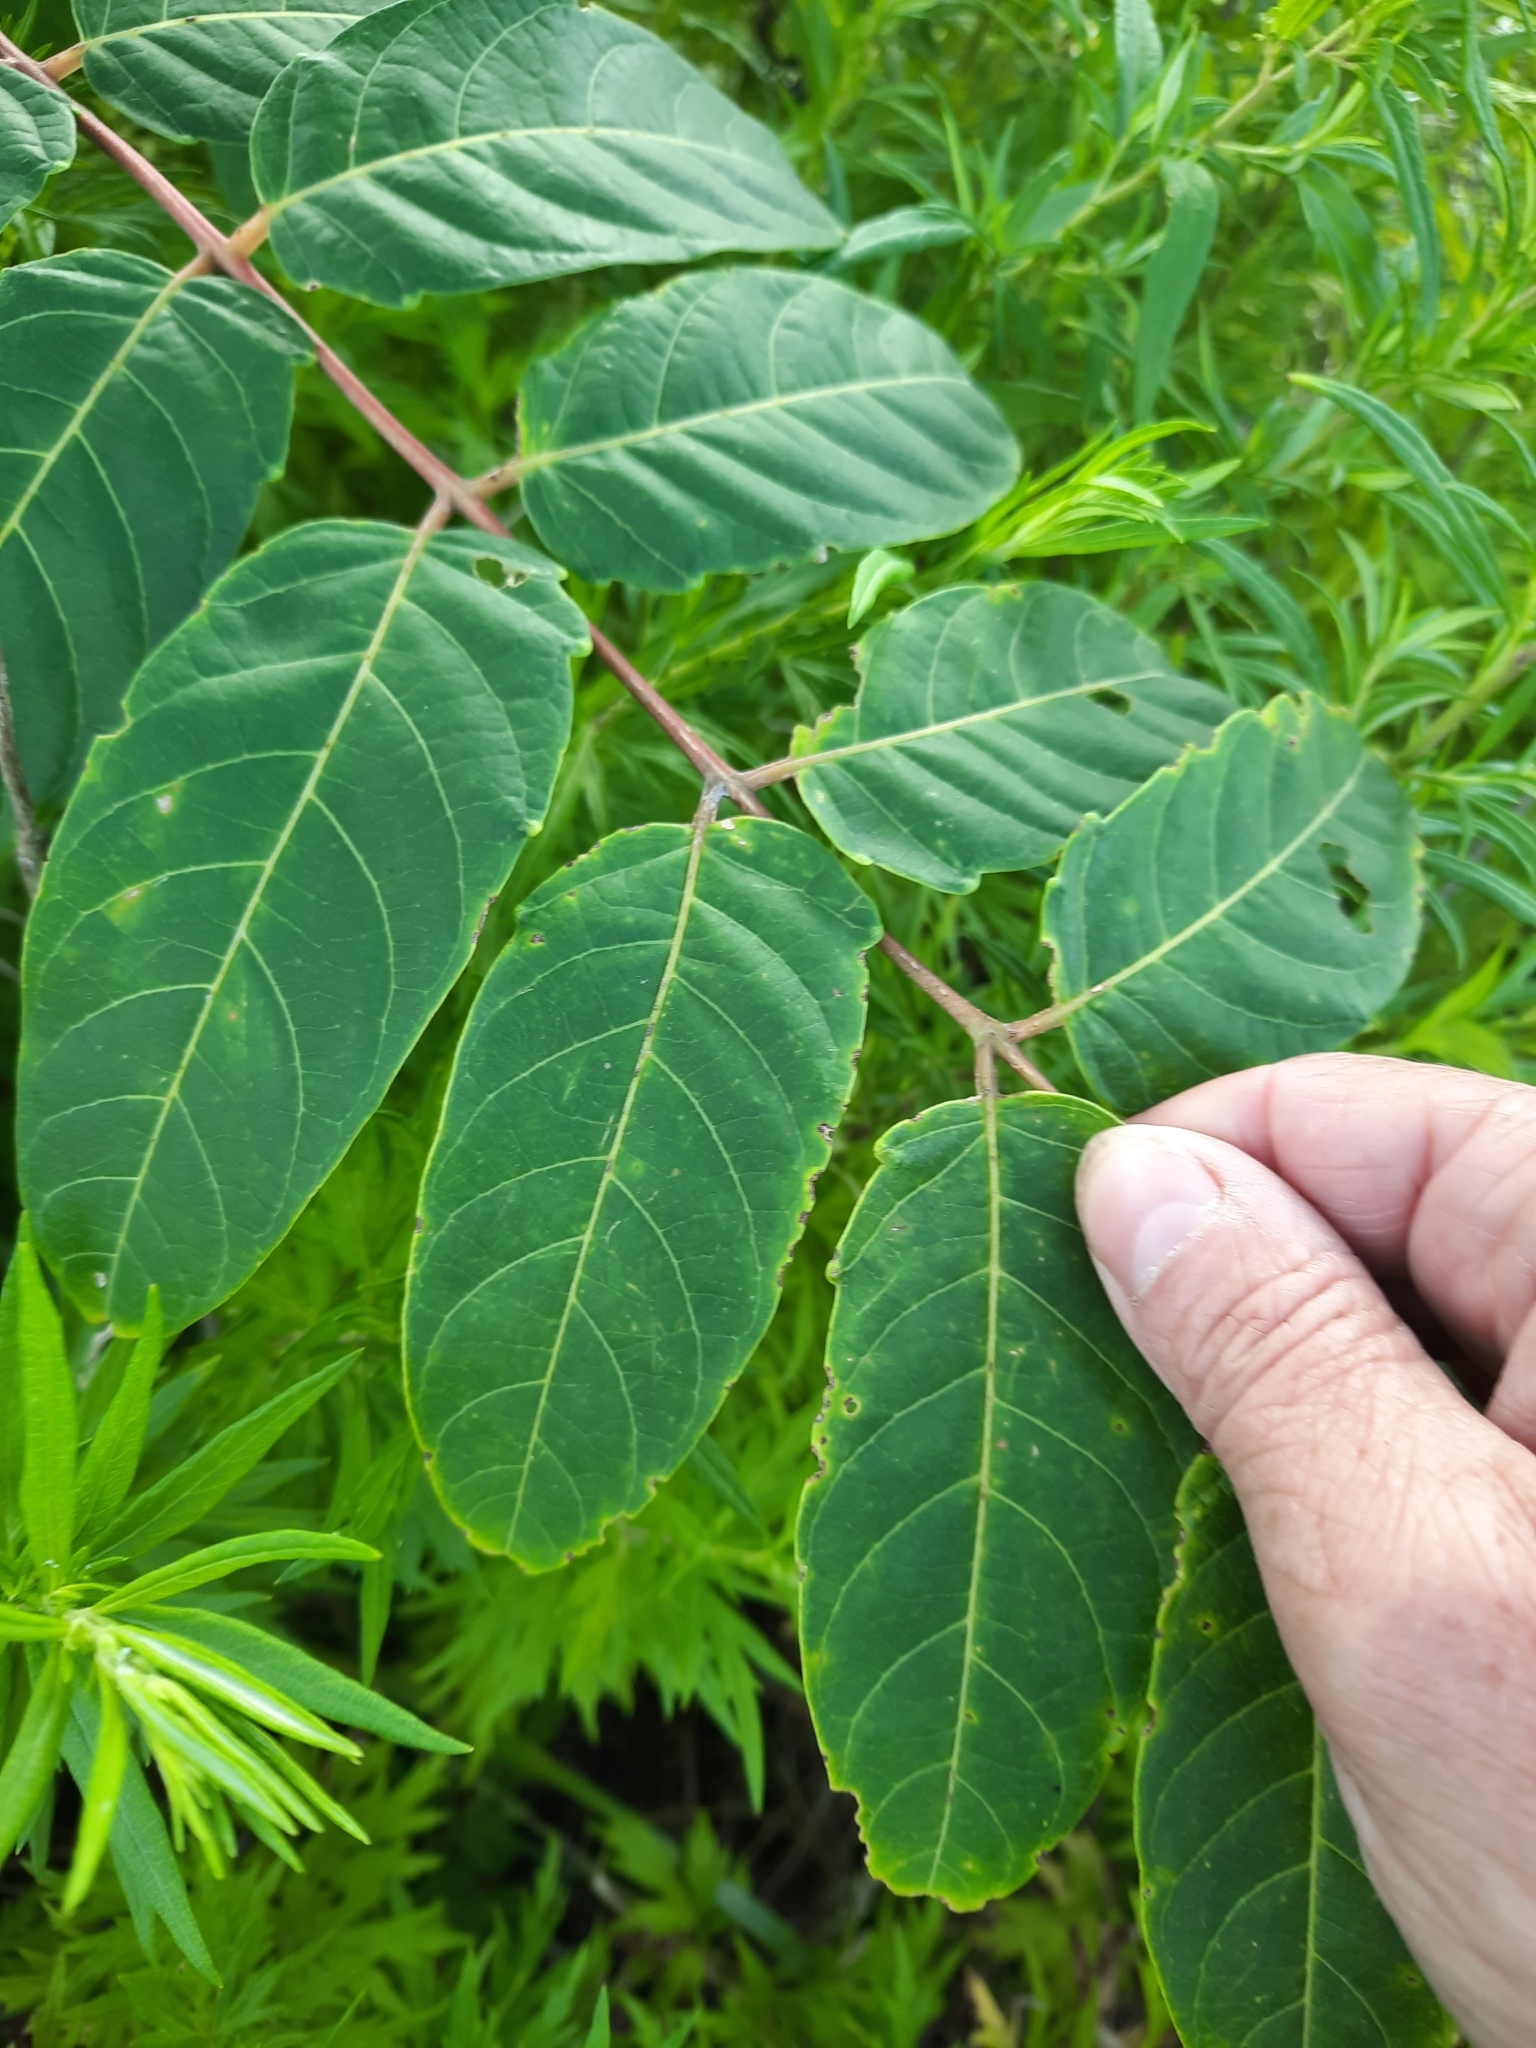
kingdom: Plantae
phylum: Tracheophyta
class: Magnoliopsida
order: Sapindales
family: Simaroubaceae
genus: Ailanthus
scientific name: Ailanthus altissima
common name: Tree-of-heaven
